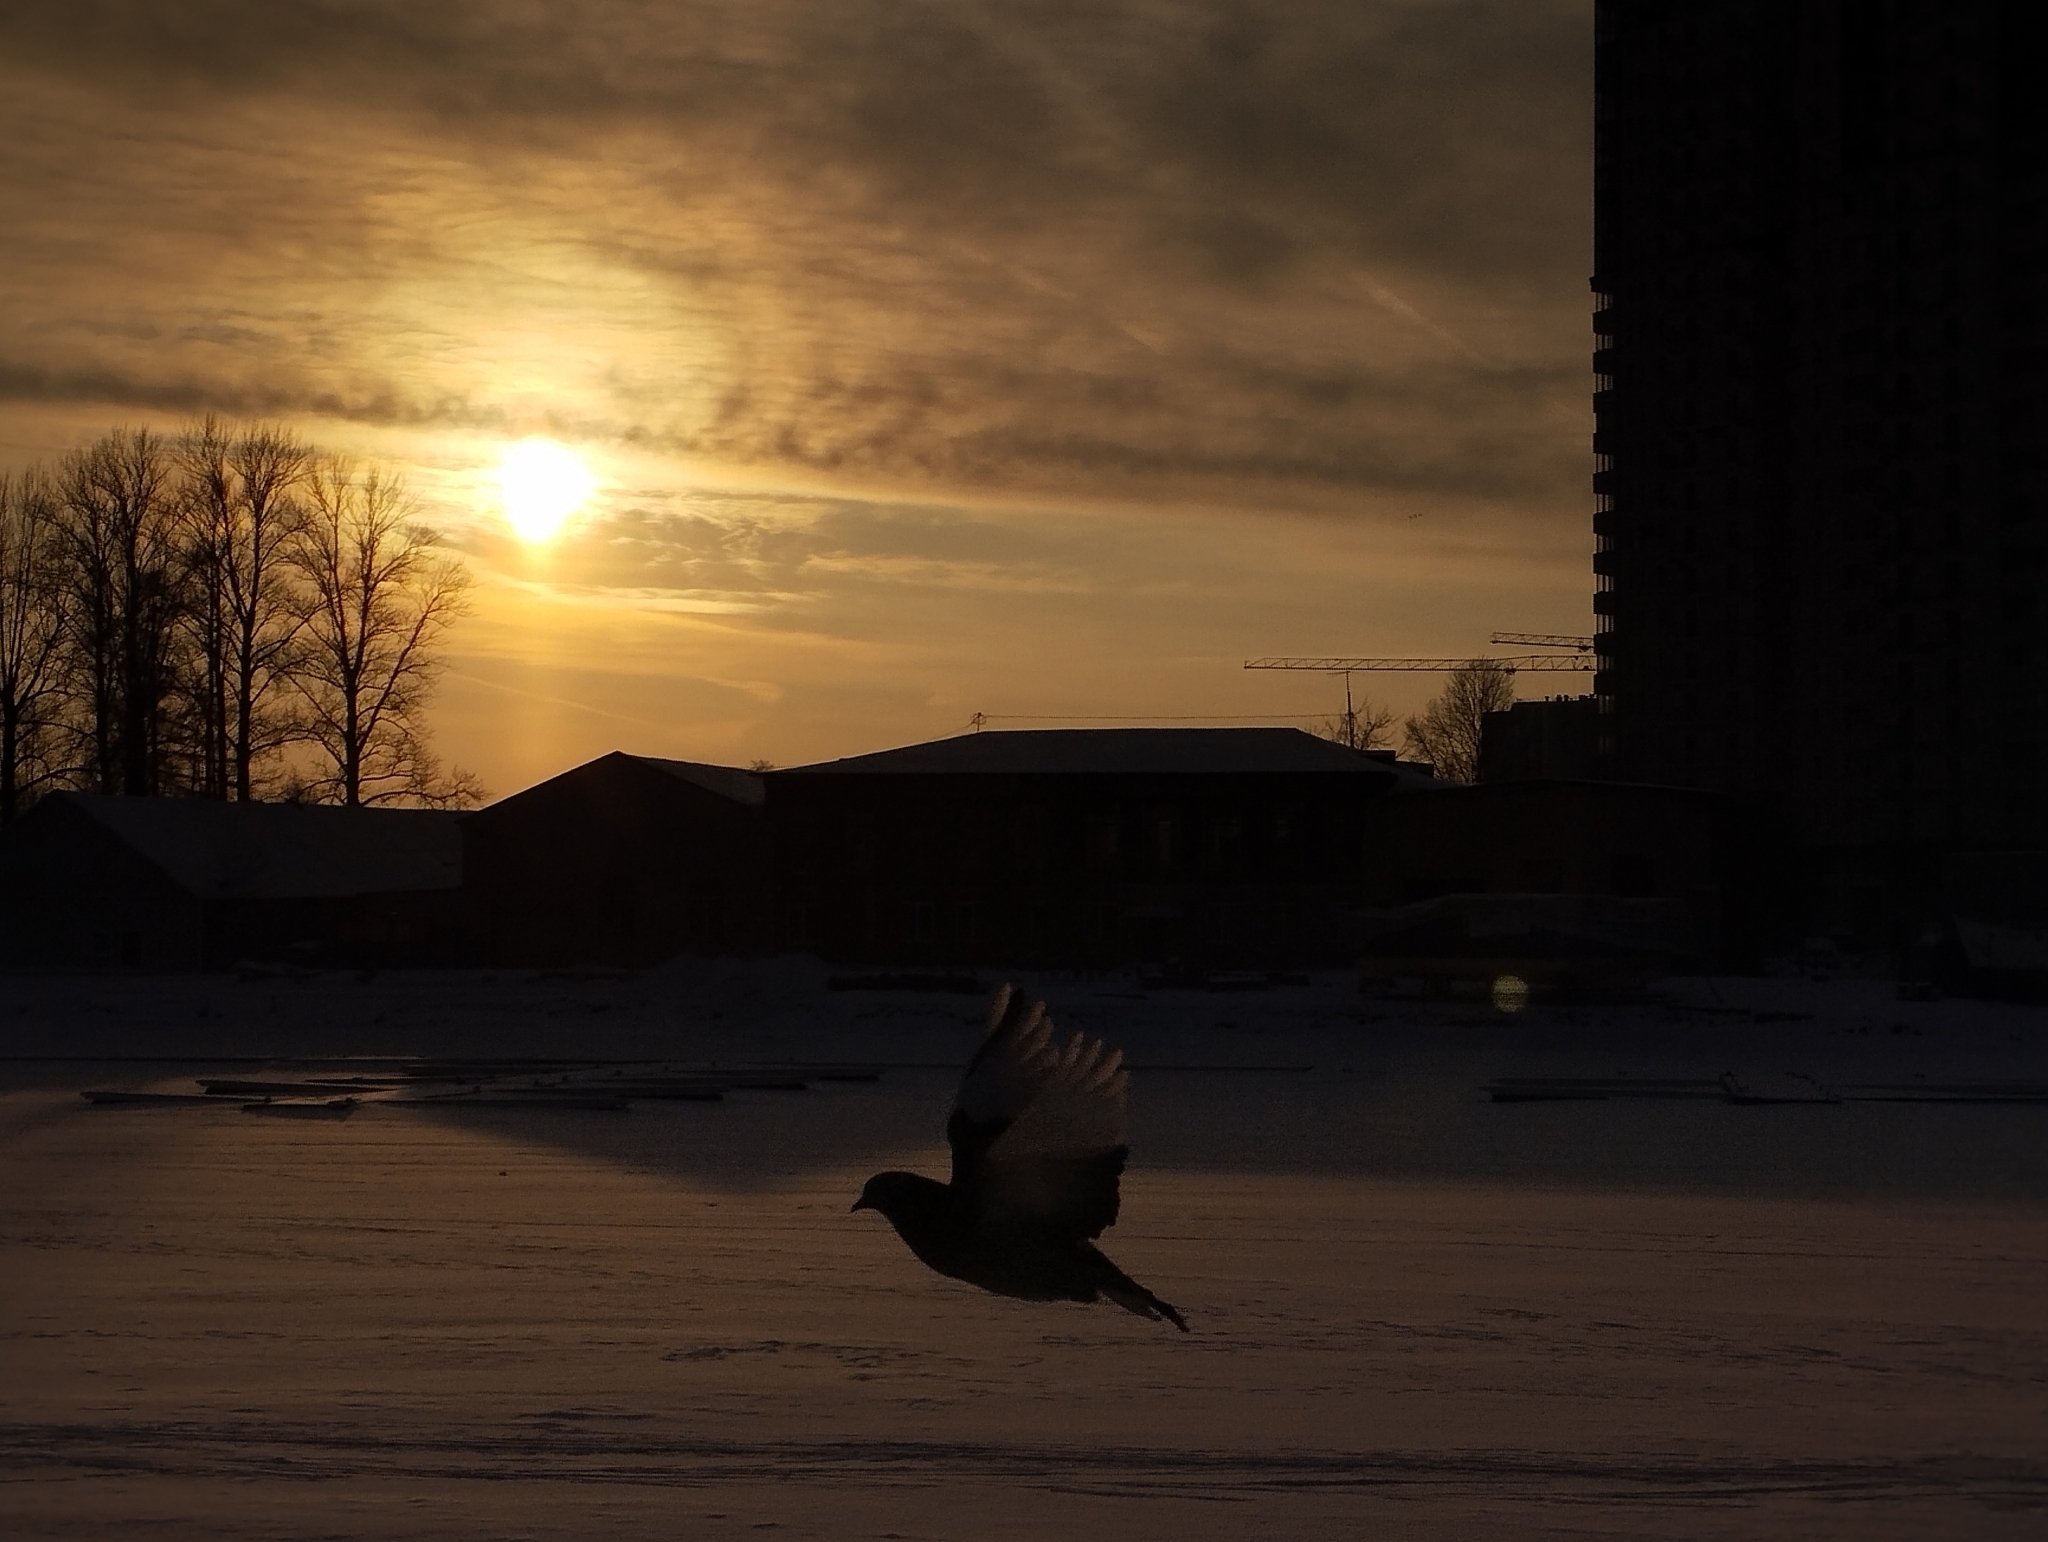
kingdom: Animalia
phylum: Chordata
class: Aves
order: Columbiformes
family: Columbidae
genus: Columba
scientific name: Columba livia
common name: Rock pigeon
